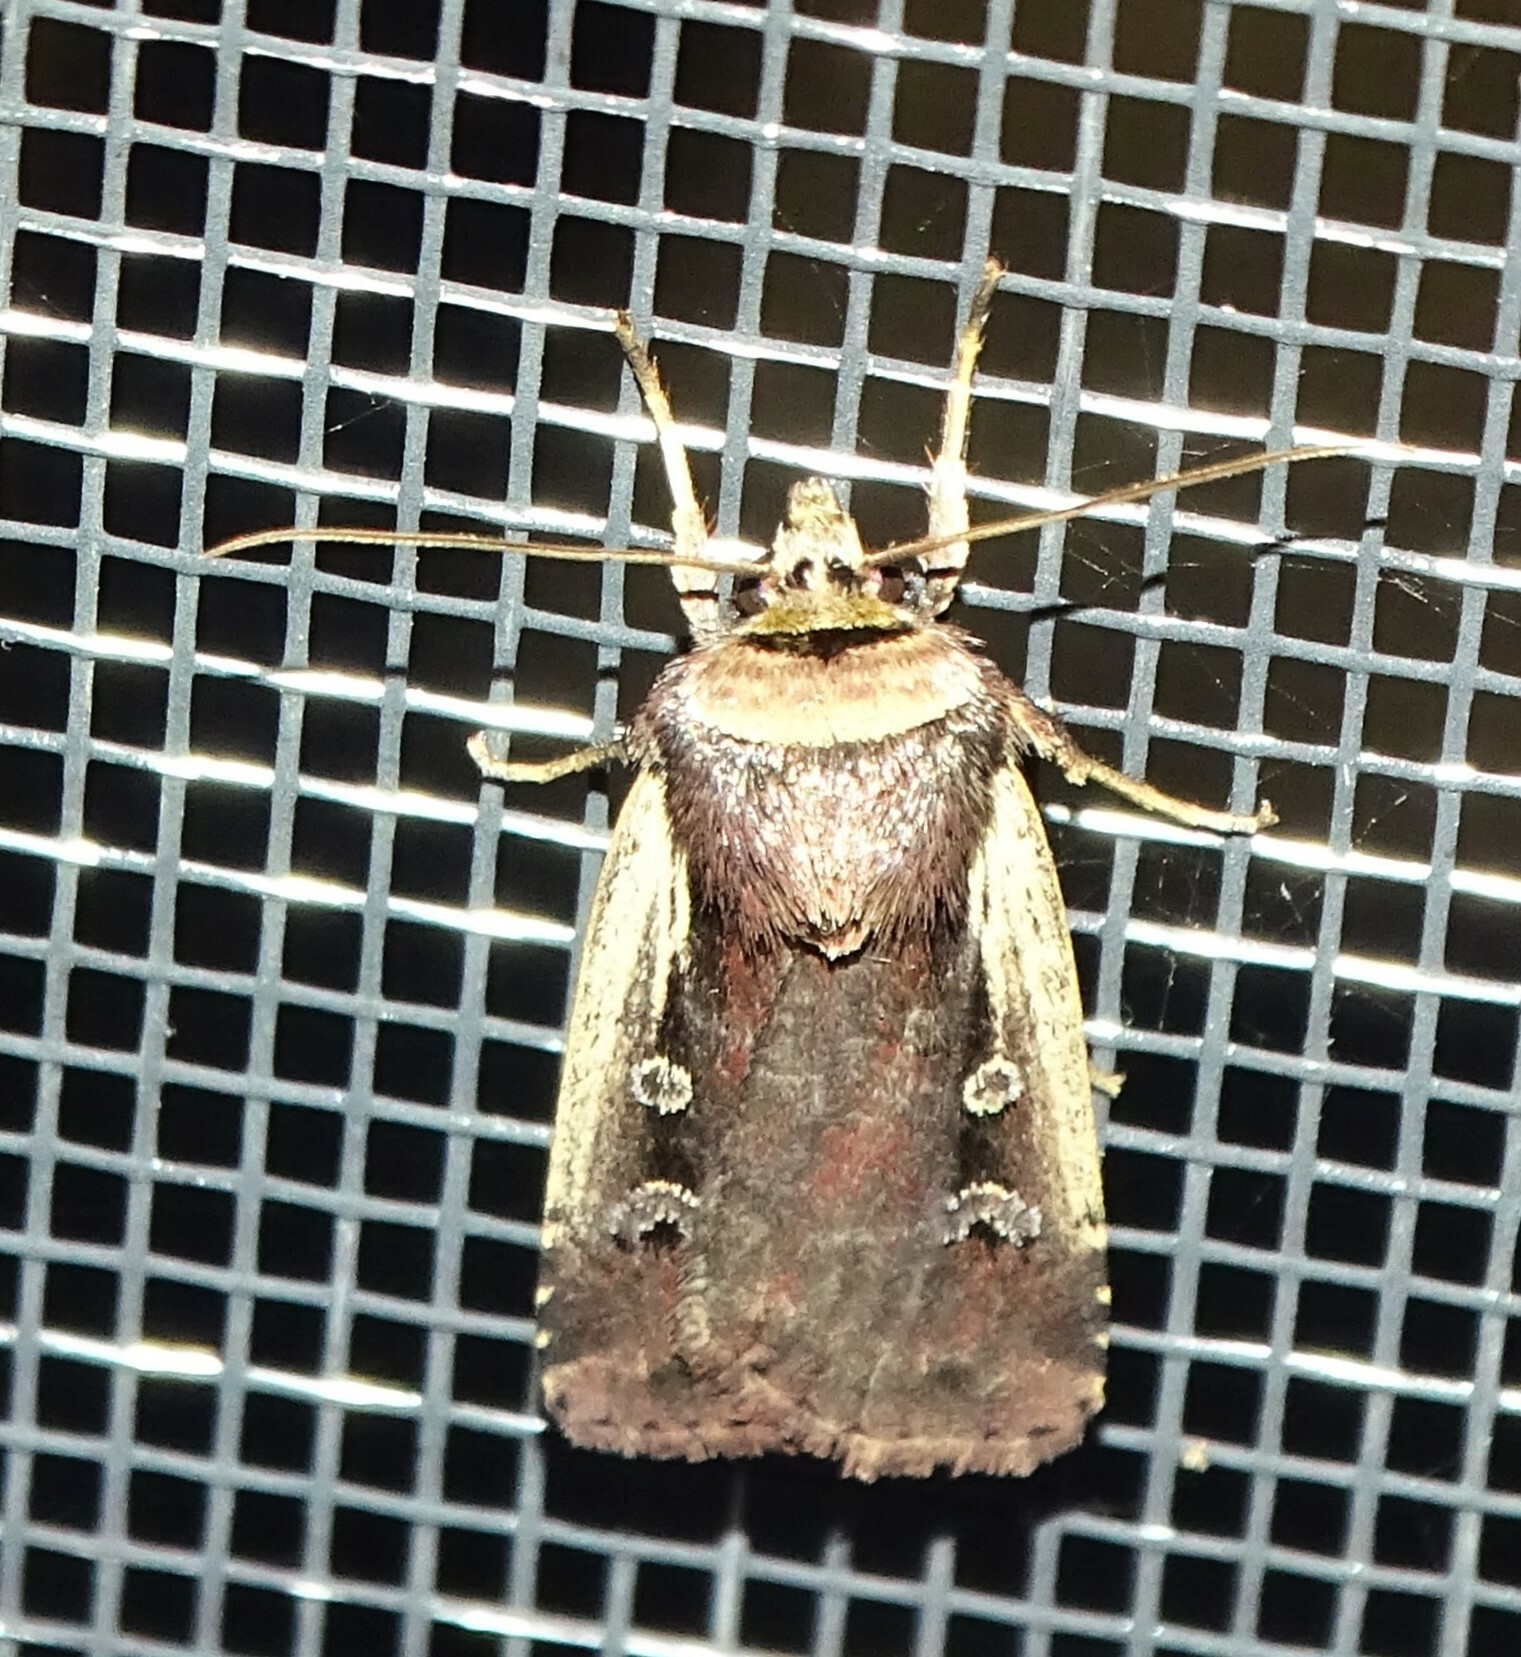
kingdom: Animalia
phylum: Arthropoda
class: Insecta
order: Lepidoptera
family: Noctuidae
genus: Ochropleura
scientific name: Ochropleura implecta
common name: Flame-shouldered dart
